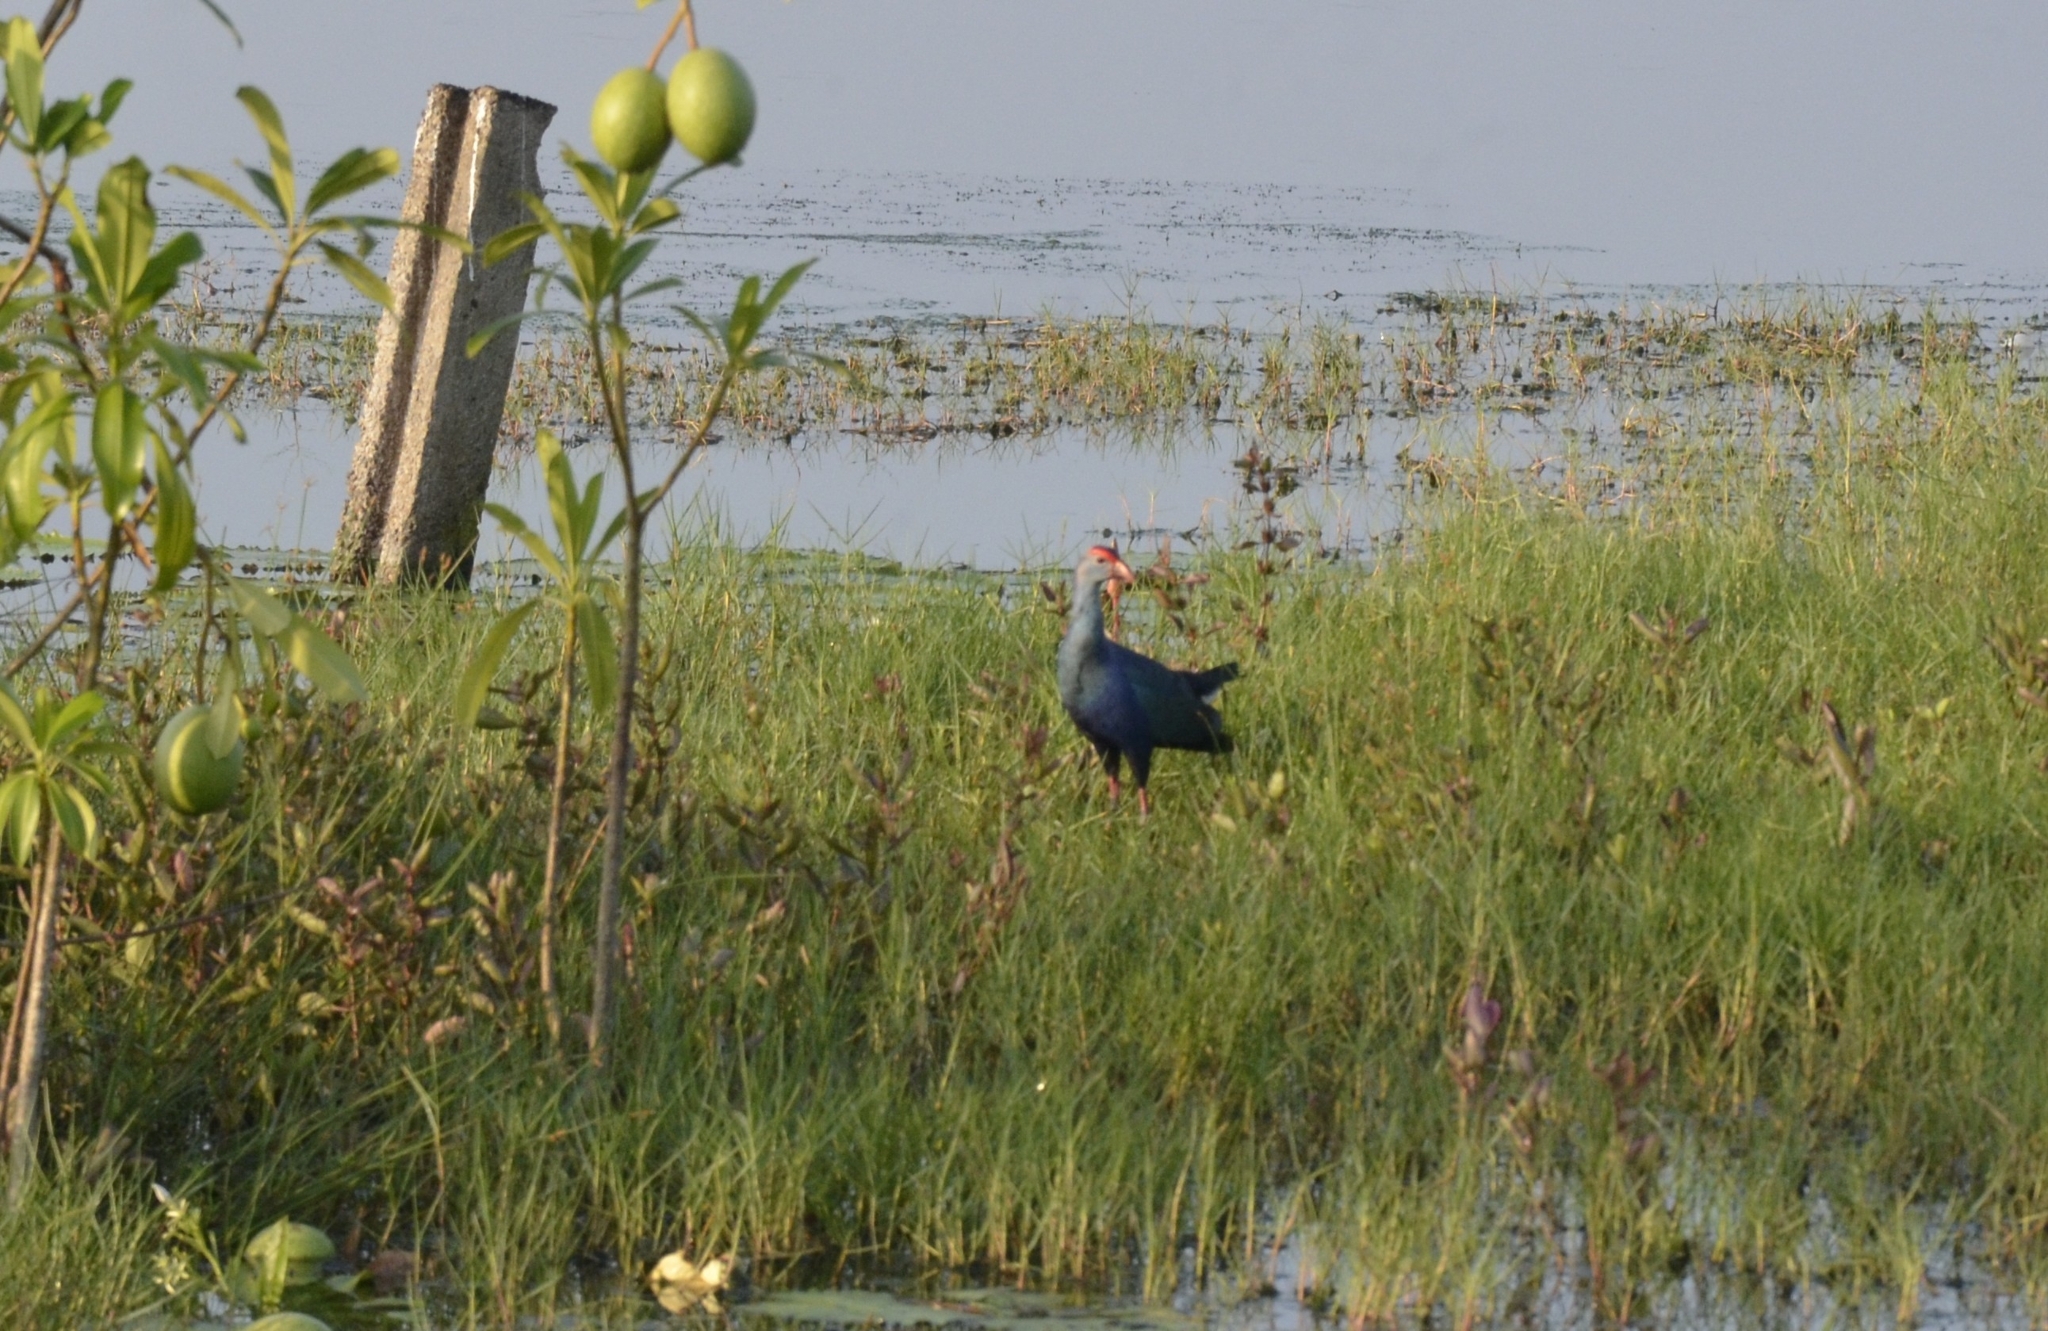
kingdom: Animalia
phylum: Chordata
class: Aves
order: Gruiformes
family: Rallidae
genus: Porphyrio
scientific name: Porphyrio porphyrio
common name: Purple swamphen
